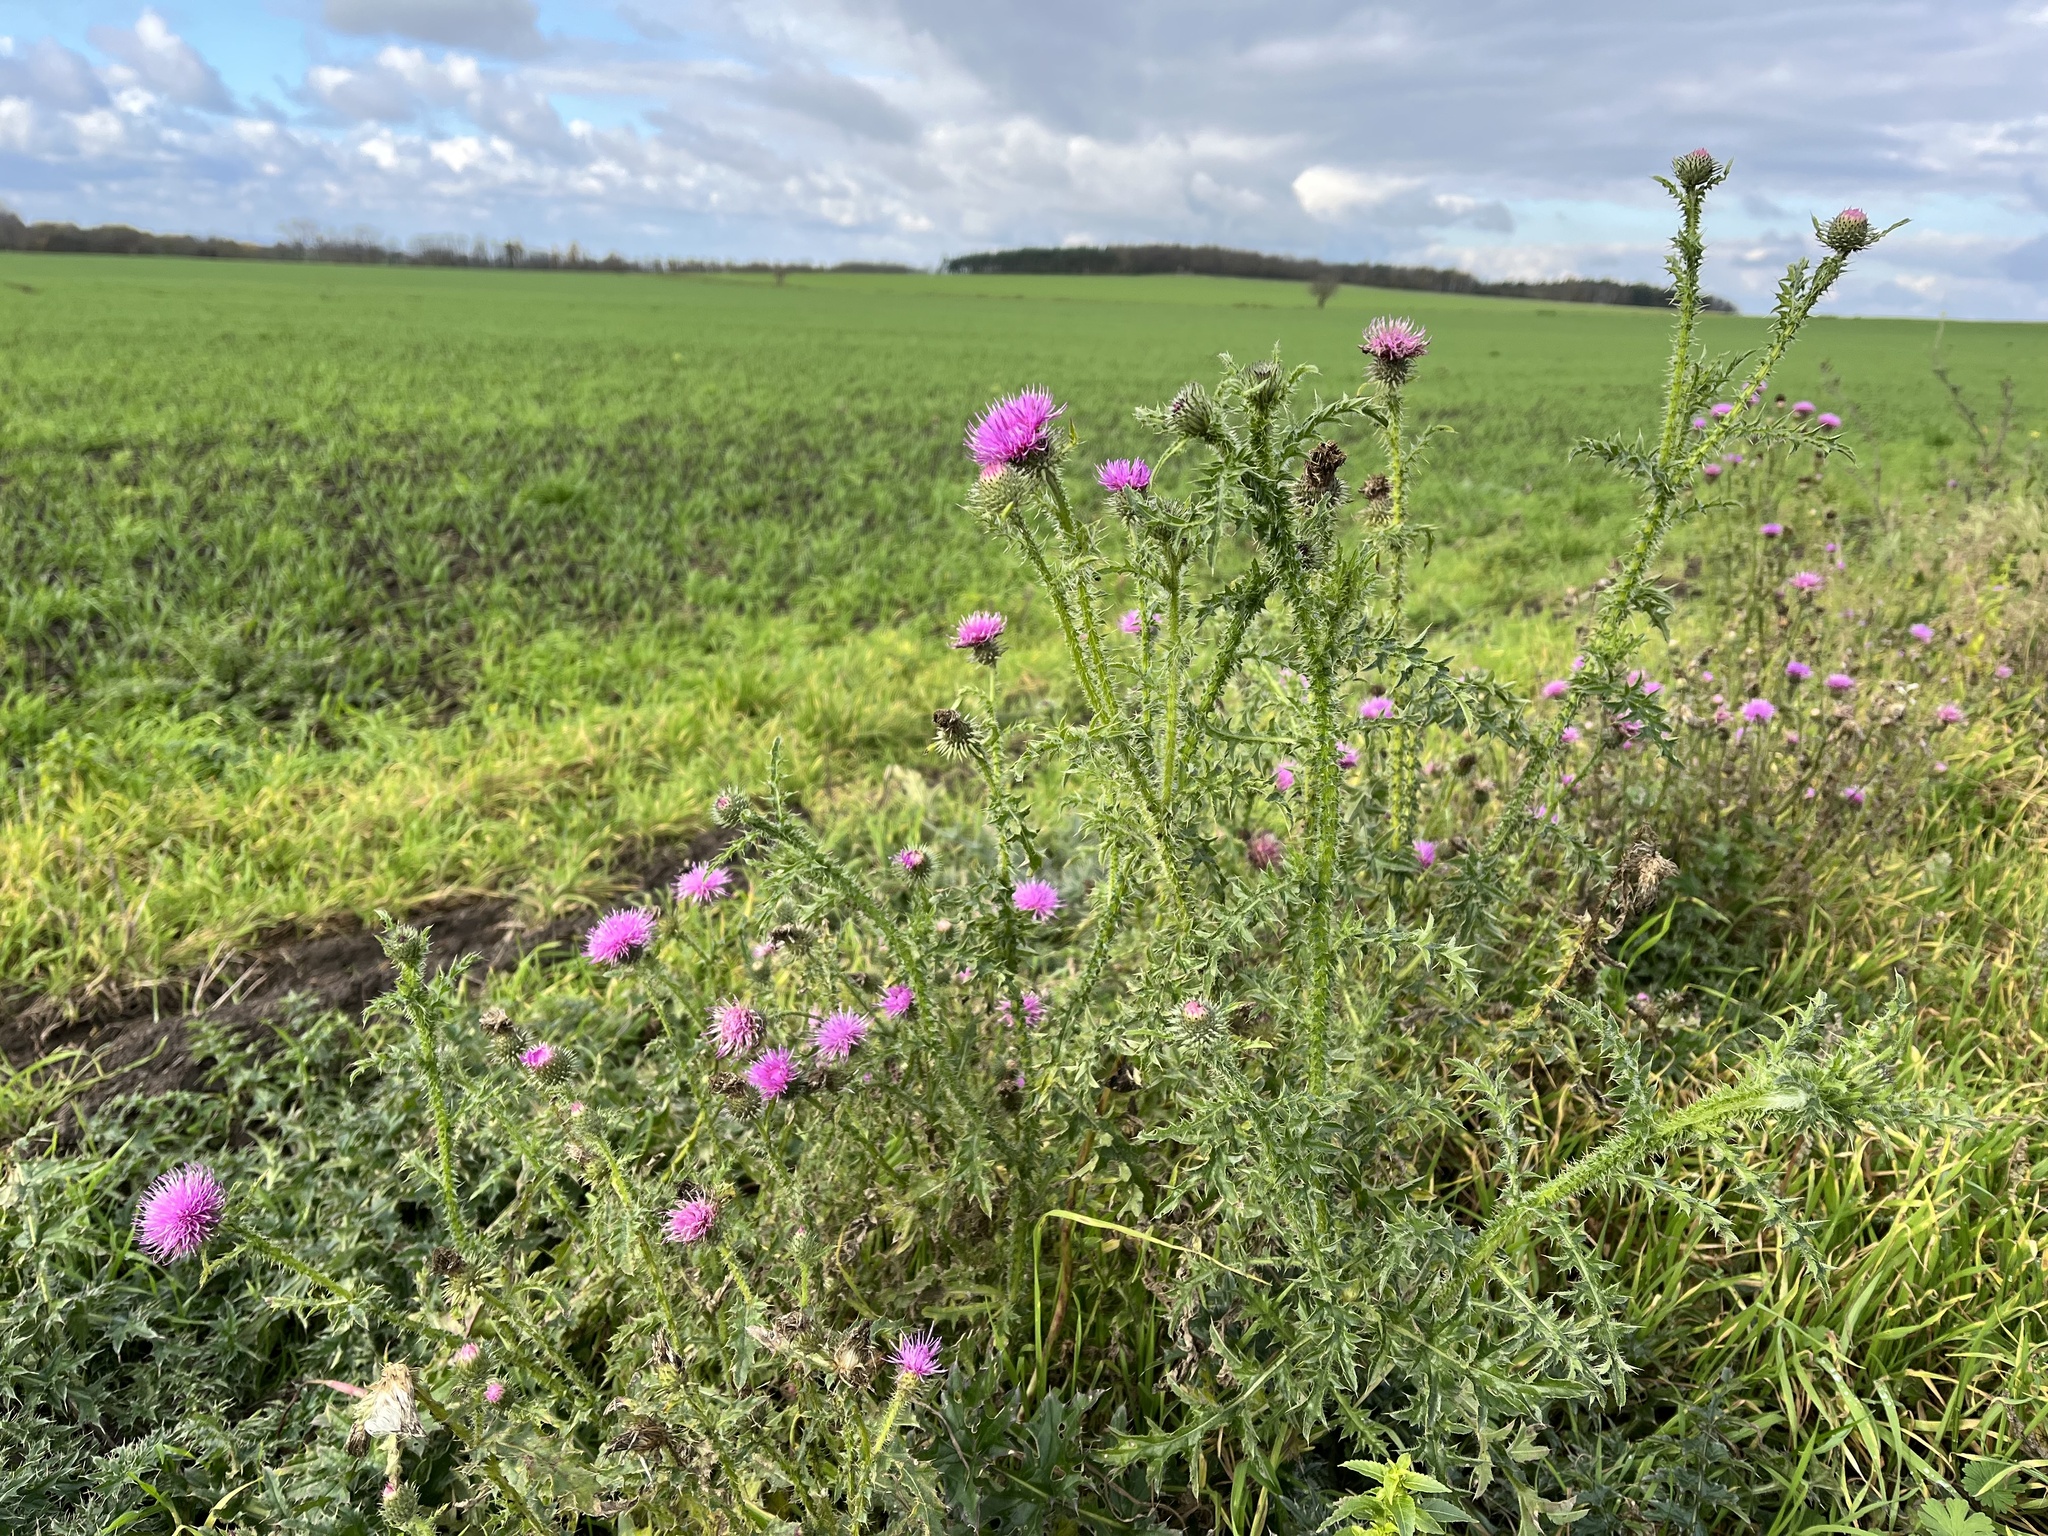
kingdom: Plantae
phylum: Tracheophyta
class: Magnoliopsida
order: Asterales
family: Asteraceae
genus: Carduus
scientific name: Carduus acanthoides
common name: Plumeless thistle
